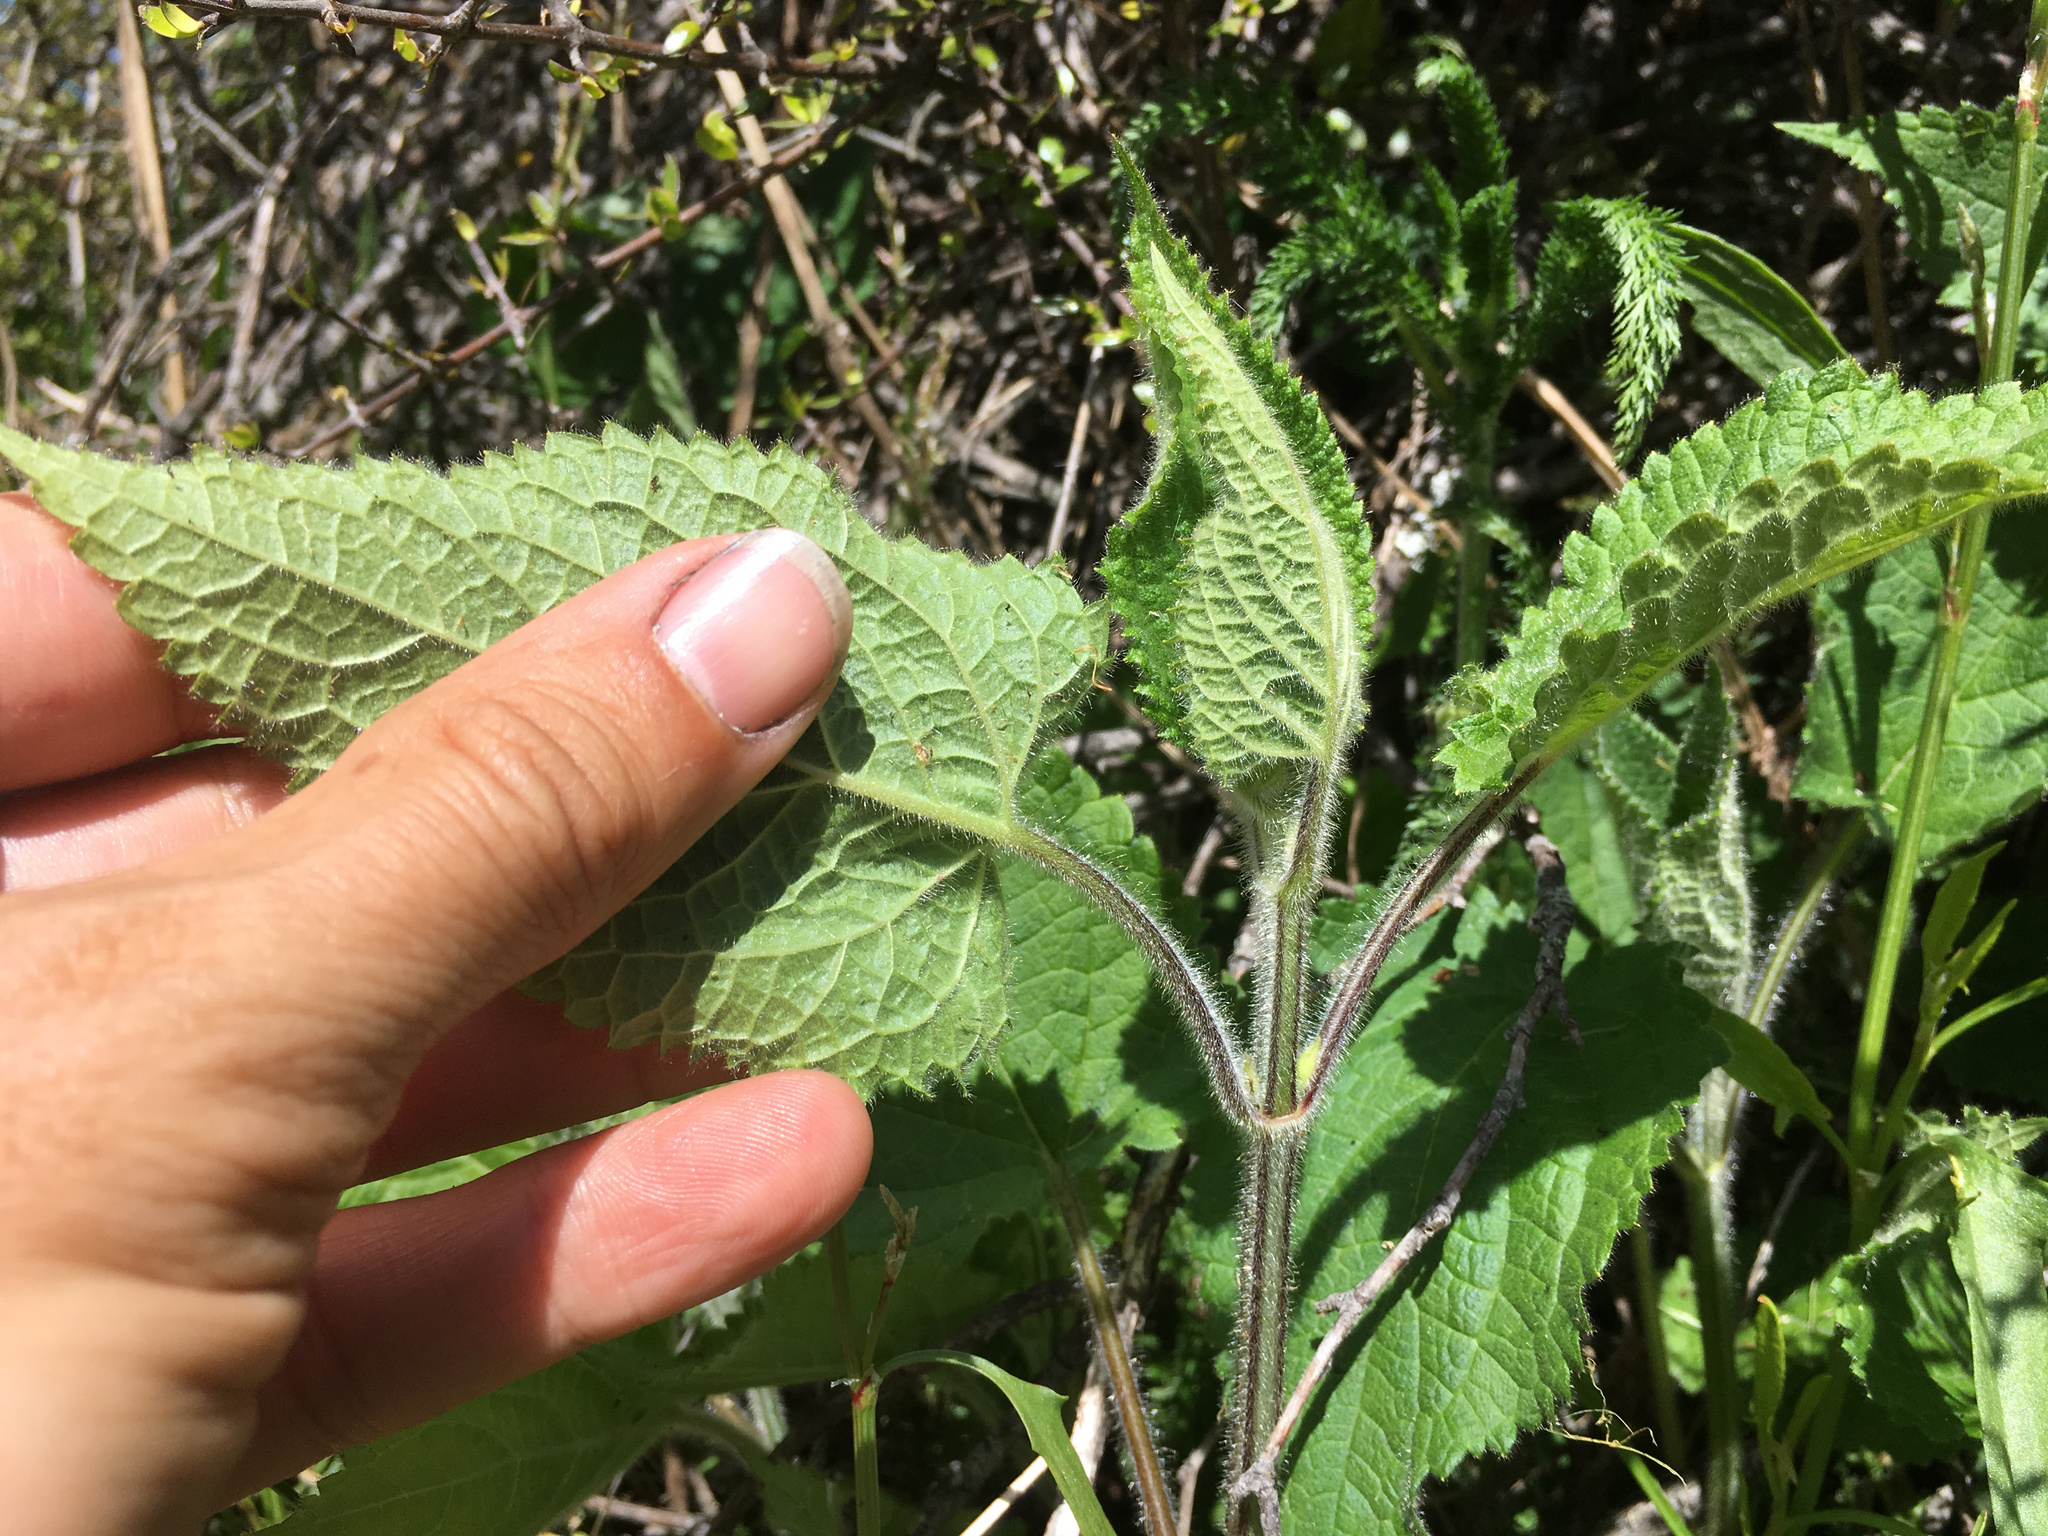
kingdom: Plantae
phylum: Tracheophyta
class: Magnoliopsida
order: Lamiales
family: Lamiaceae
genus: Stachys
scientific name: Stachys sylvatica
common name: Hedge woundwort
